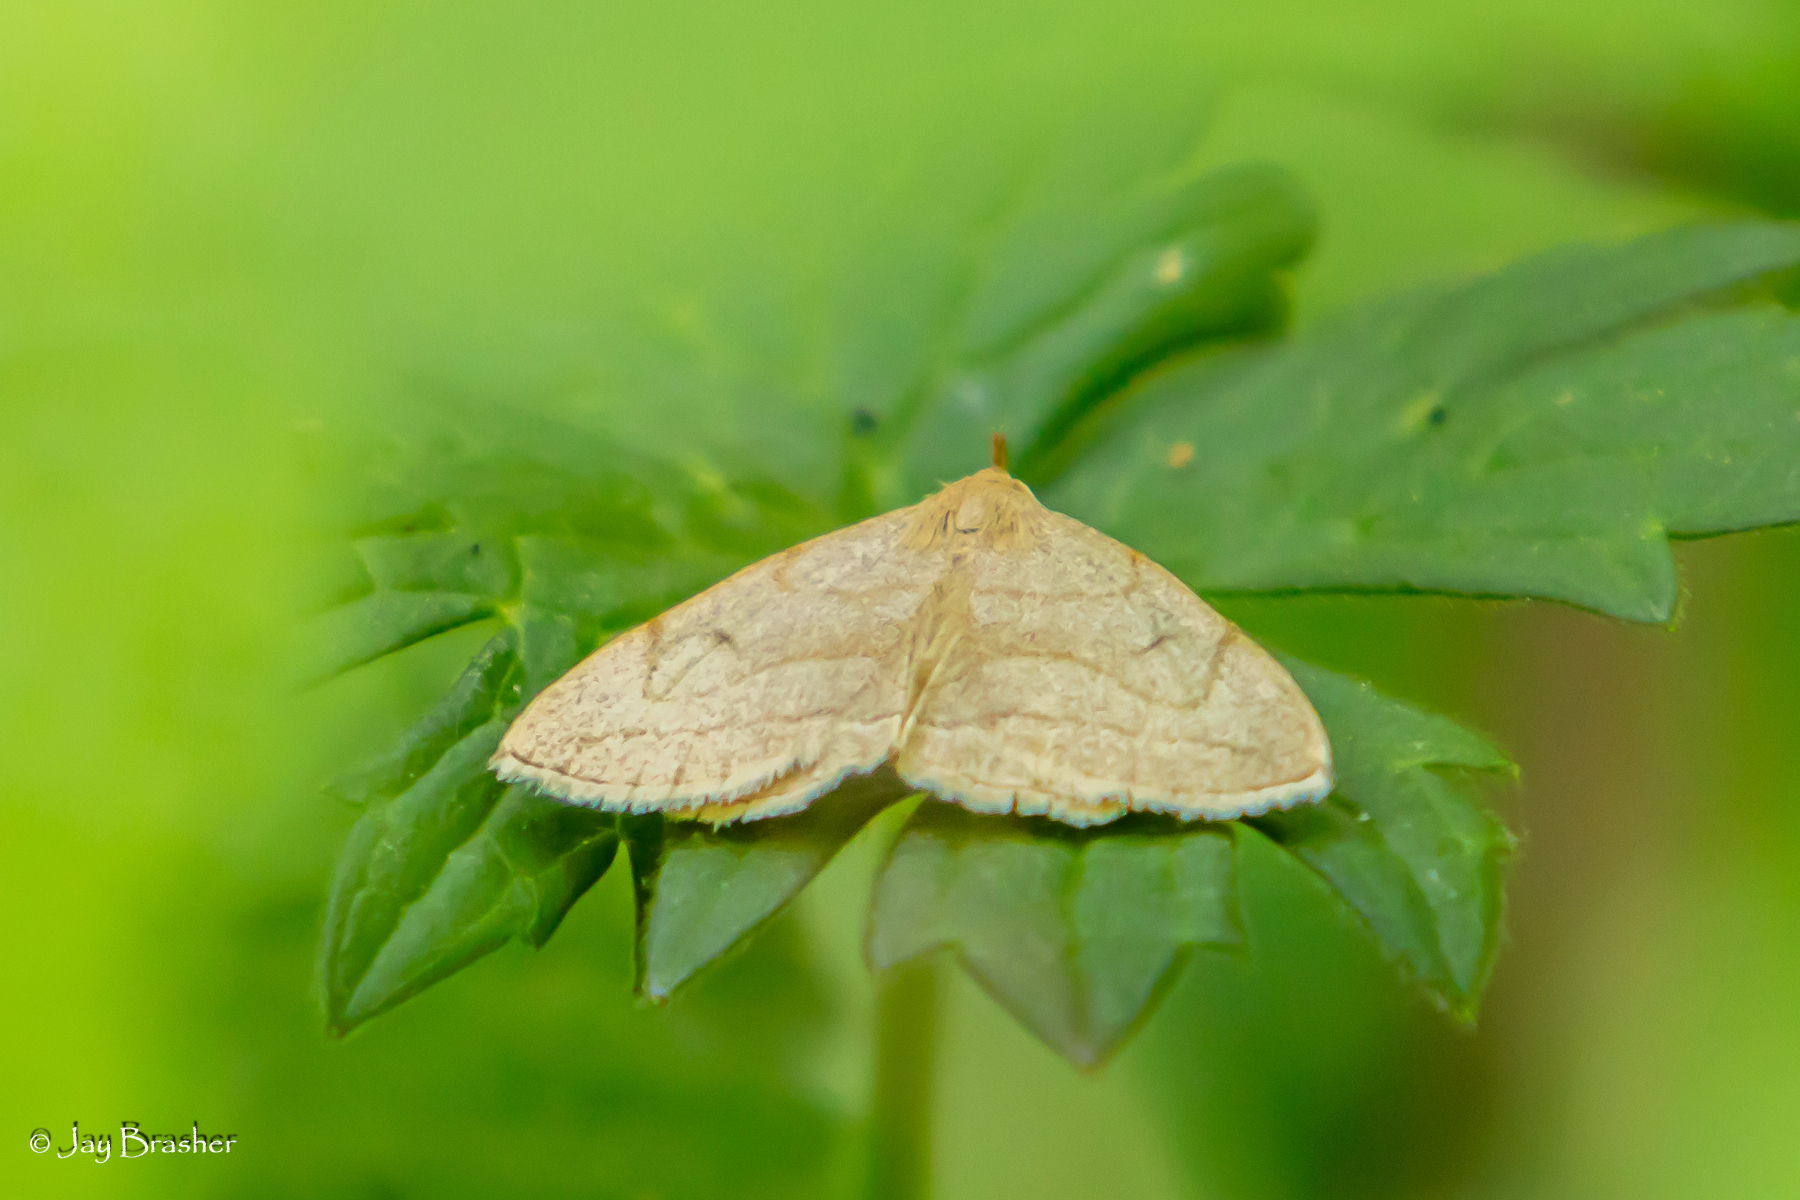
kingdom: Animalia
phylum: Arthropoda
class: Insecta
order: Lepidoptera
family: Erebidae
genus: Zanclognatha
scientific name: Zanclognatha pedipilalis
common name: Grayish fan-foot
